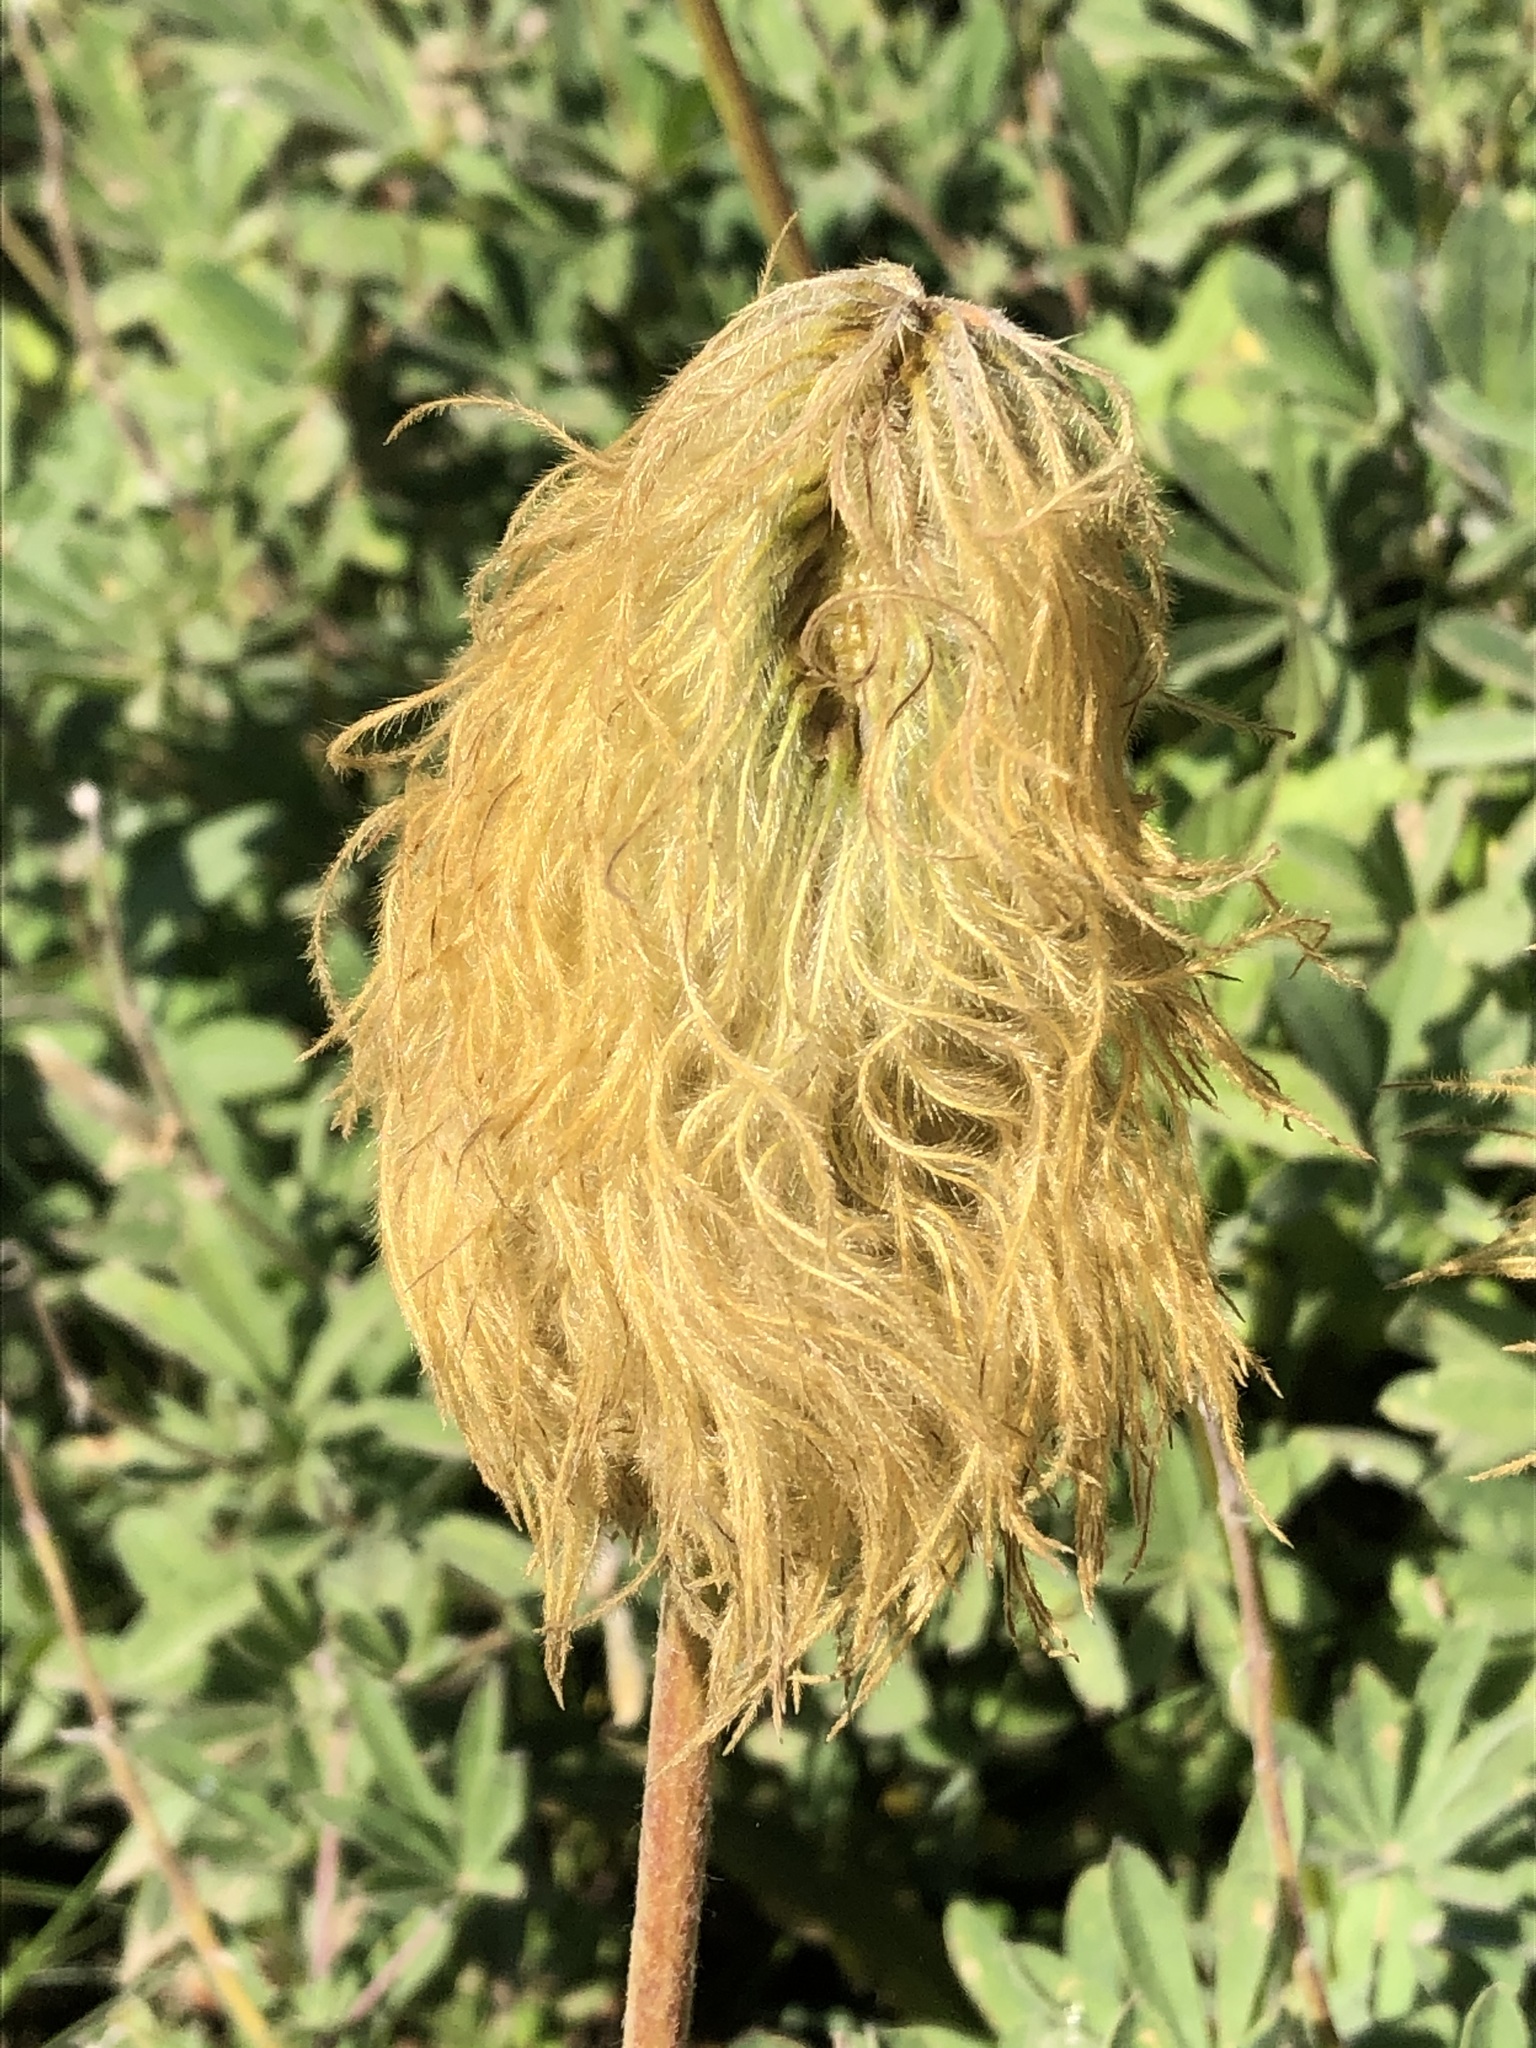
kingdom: Plantae
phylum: Tracheophyta
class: Magnoliopsida
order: Ranunculales
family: Ranunculaceae
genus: Pulsatilla
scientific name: Pulsatilla occidentalis
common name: Mountain pasqueflower
